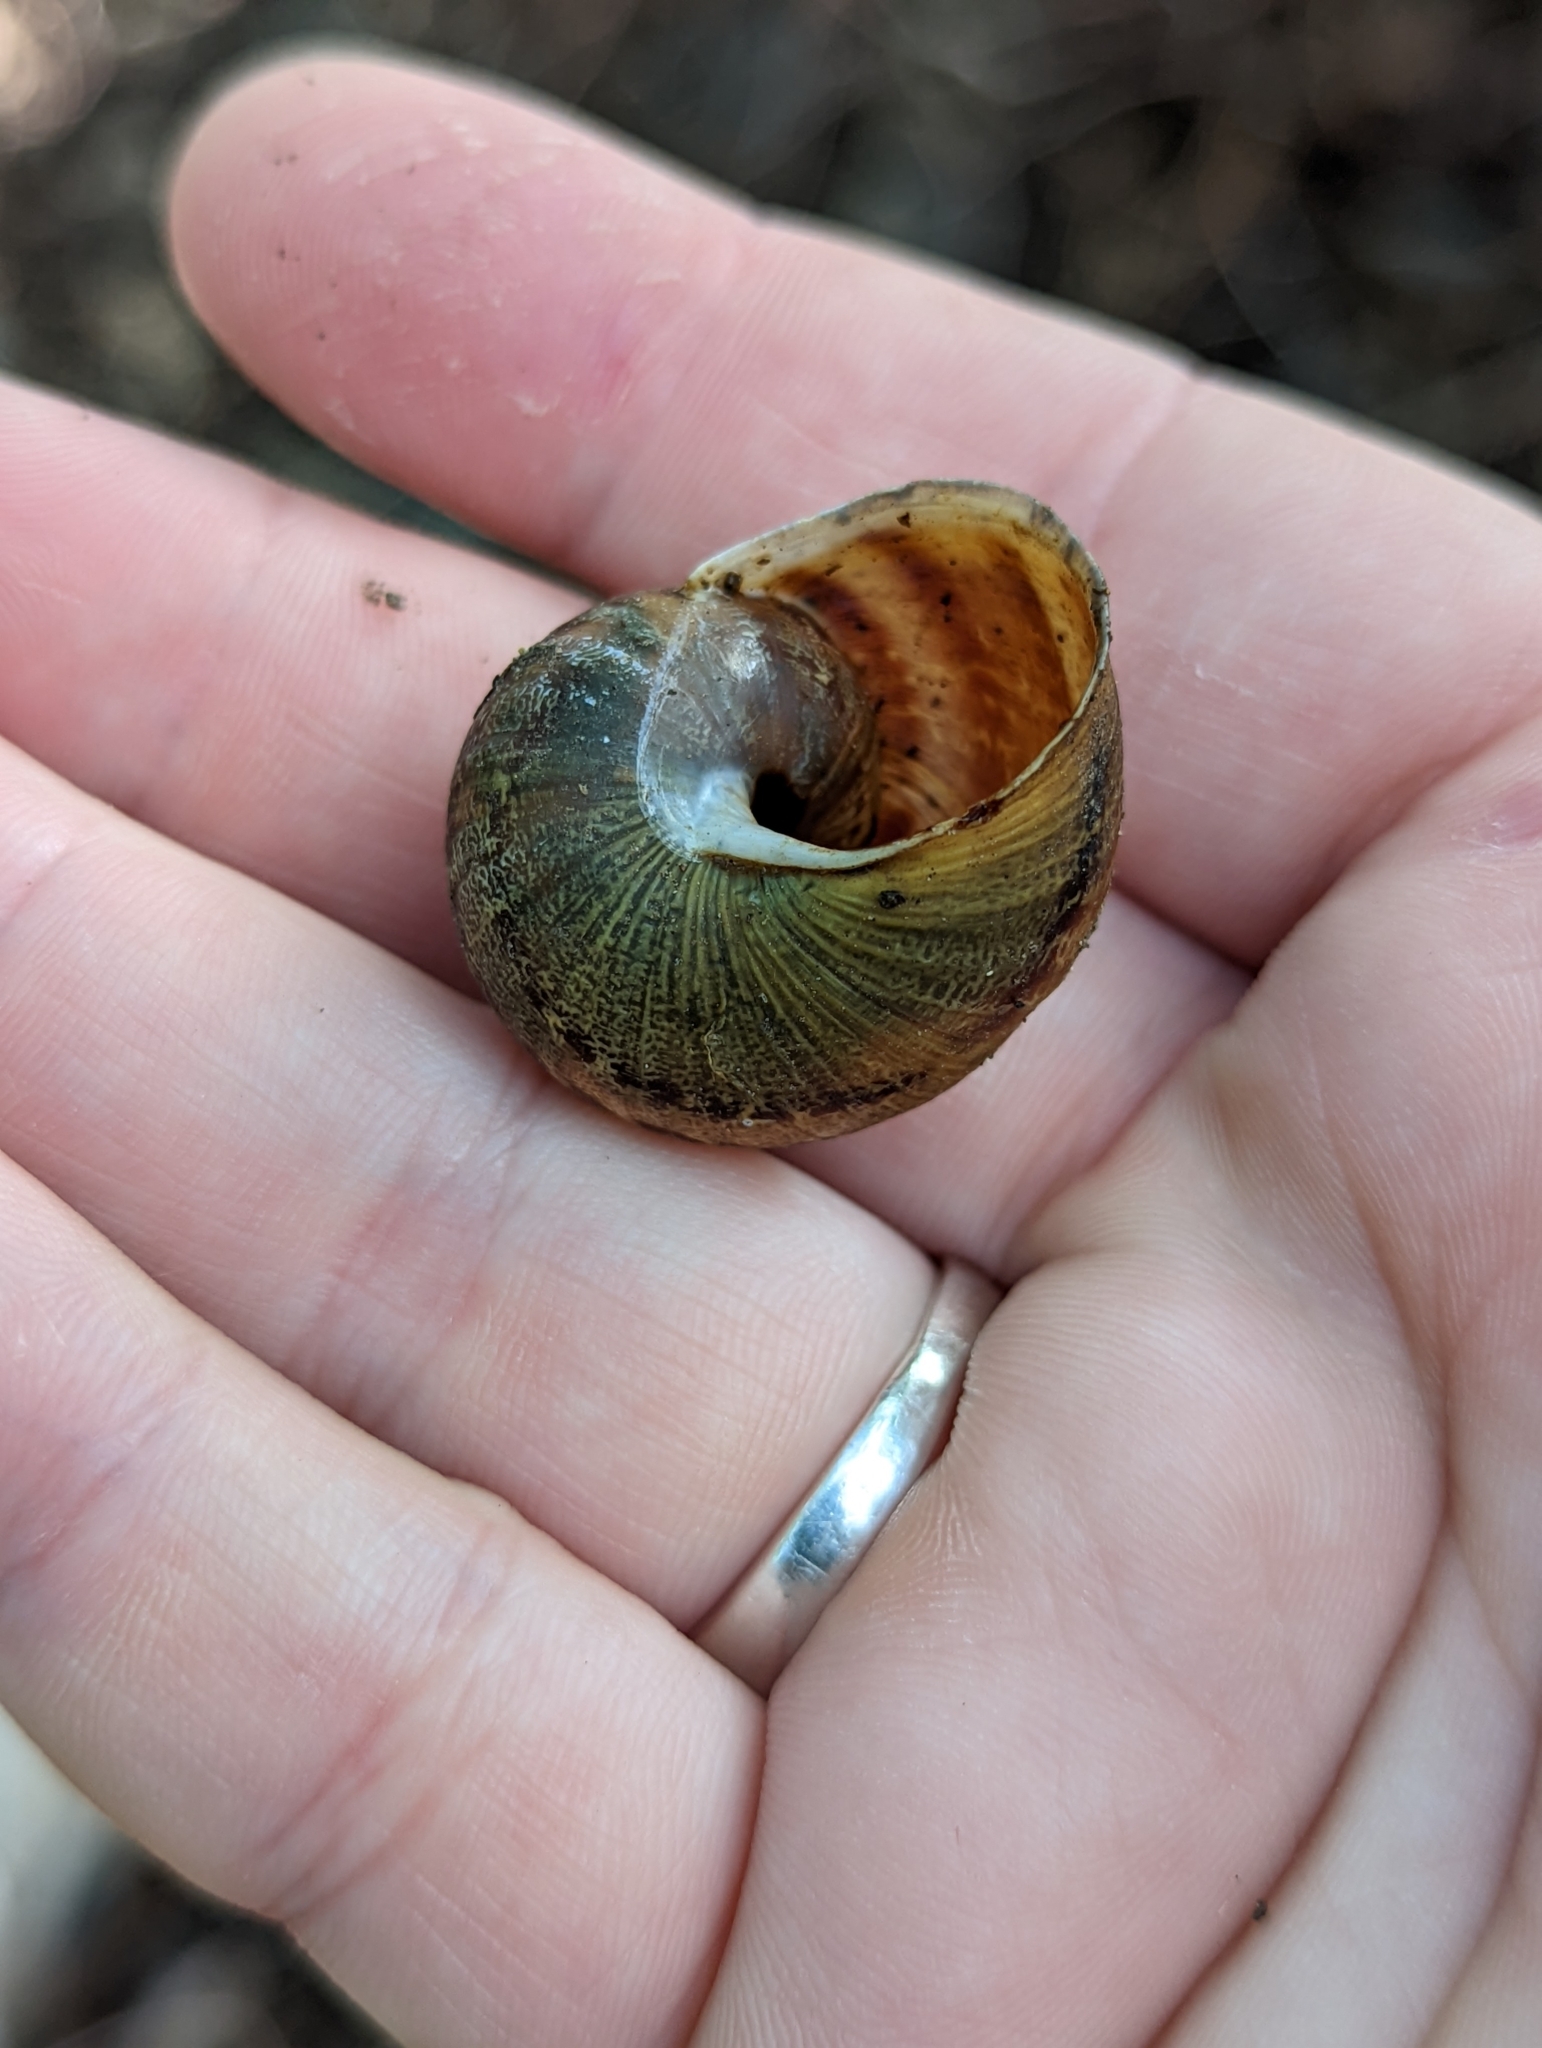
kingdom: Animalia
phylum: Mollusca
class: Gastropoda
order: Stylommatophora
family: Helicidae
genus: Cornu
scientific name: Cornu aspersum
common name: Brown garden snail
